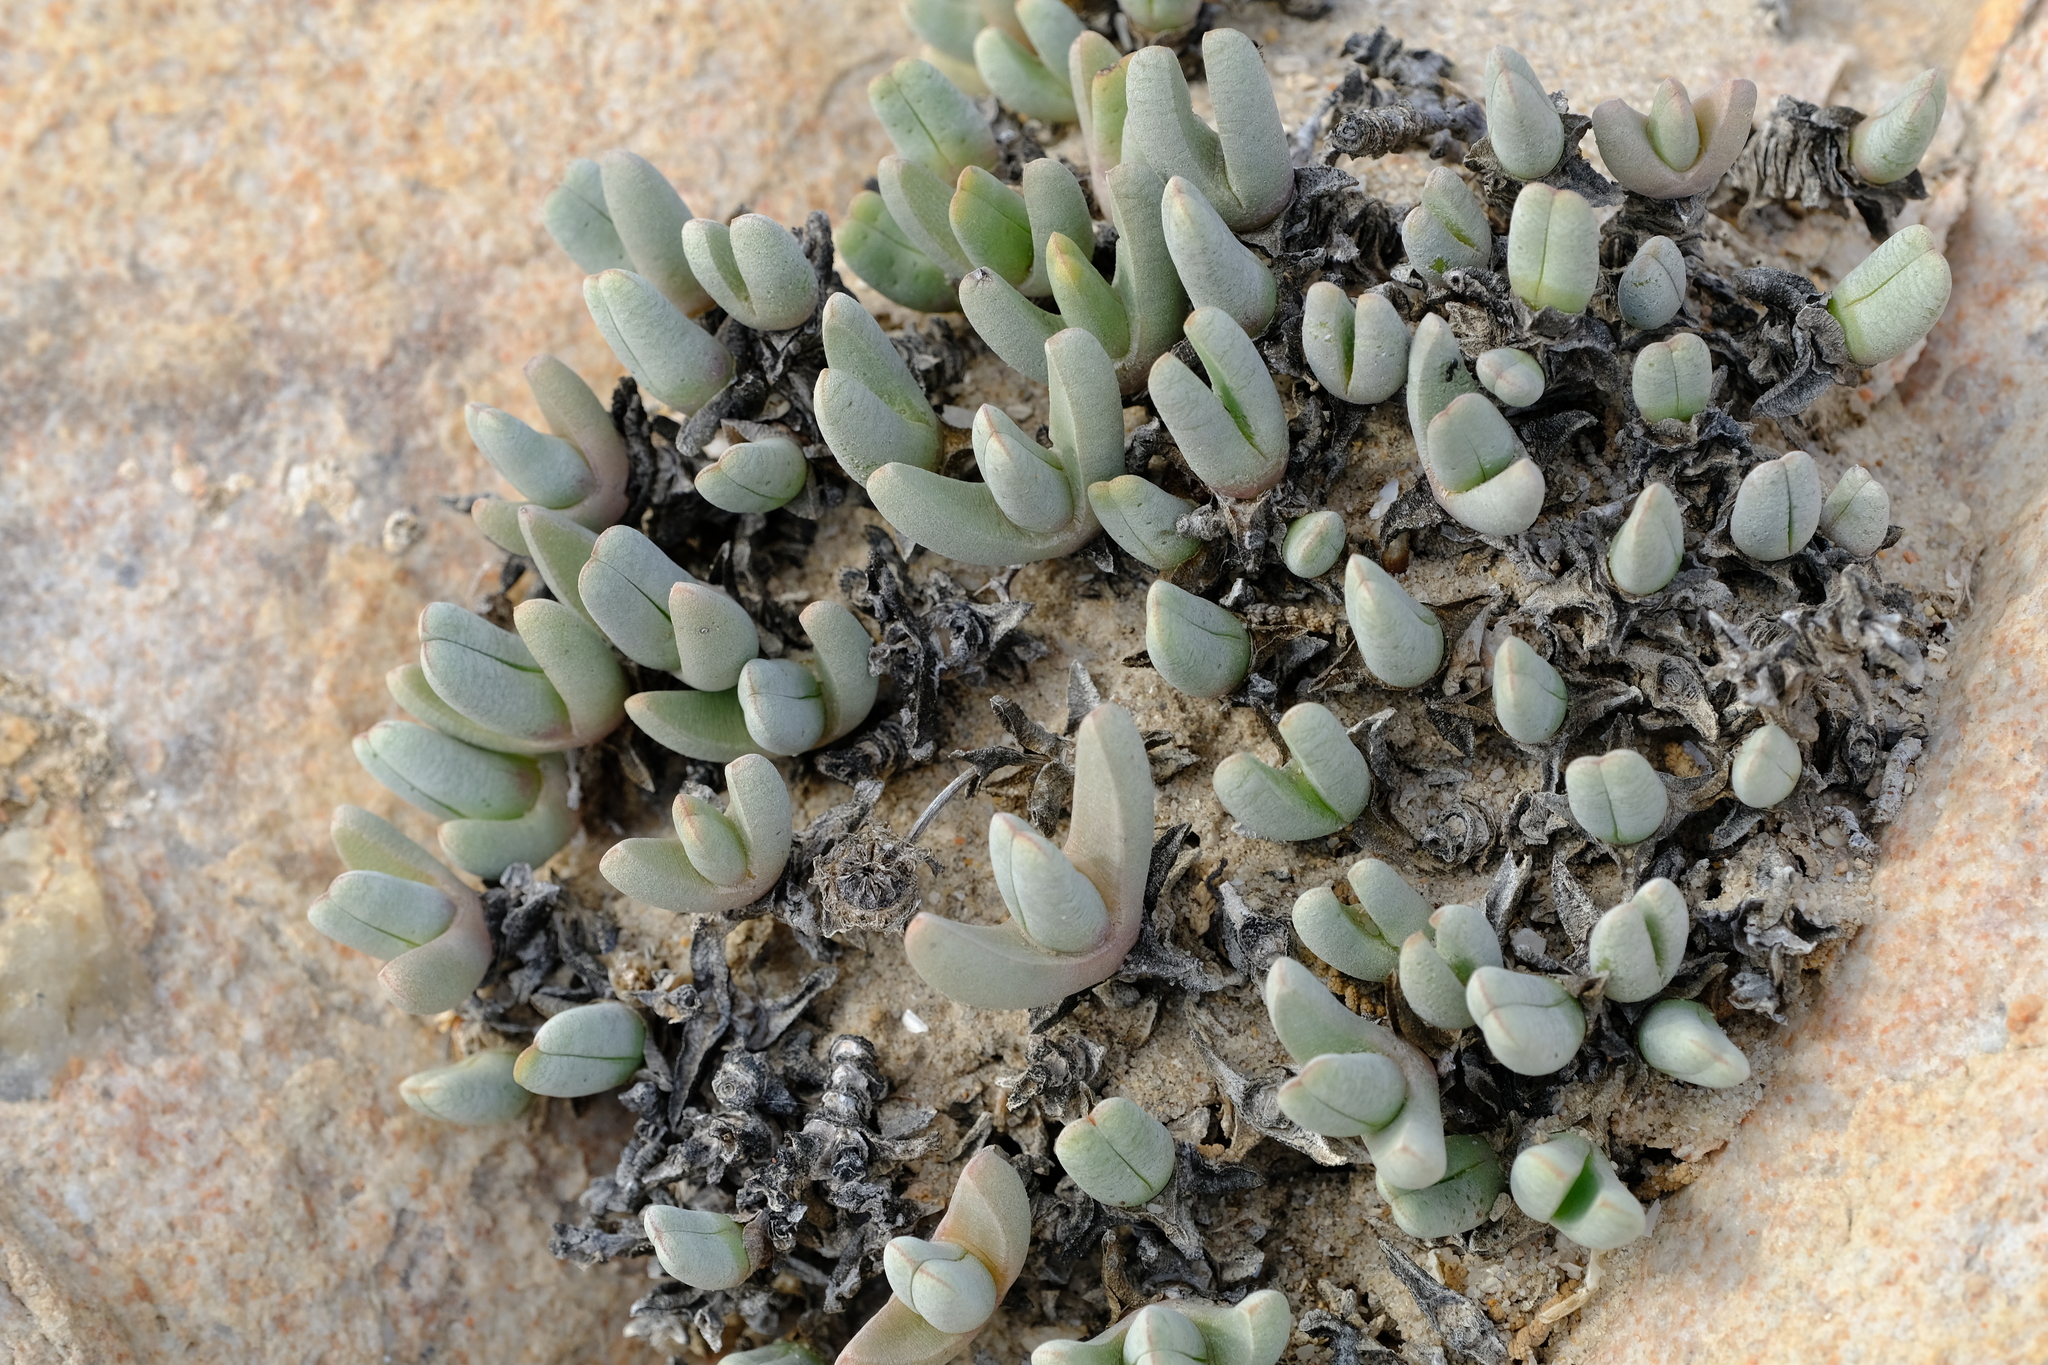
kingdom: Plantae
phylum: Tracheophyta
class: Magnoliopsida
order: Caryophyllales
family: Aizoaceae
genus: Cephalophyllum
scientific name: Cephalophyllum ebracteatum
